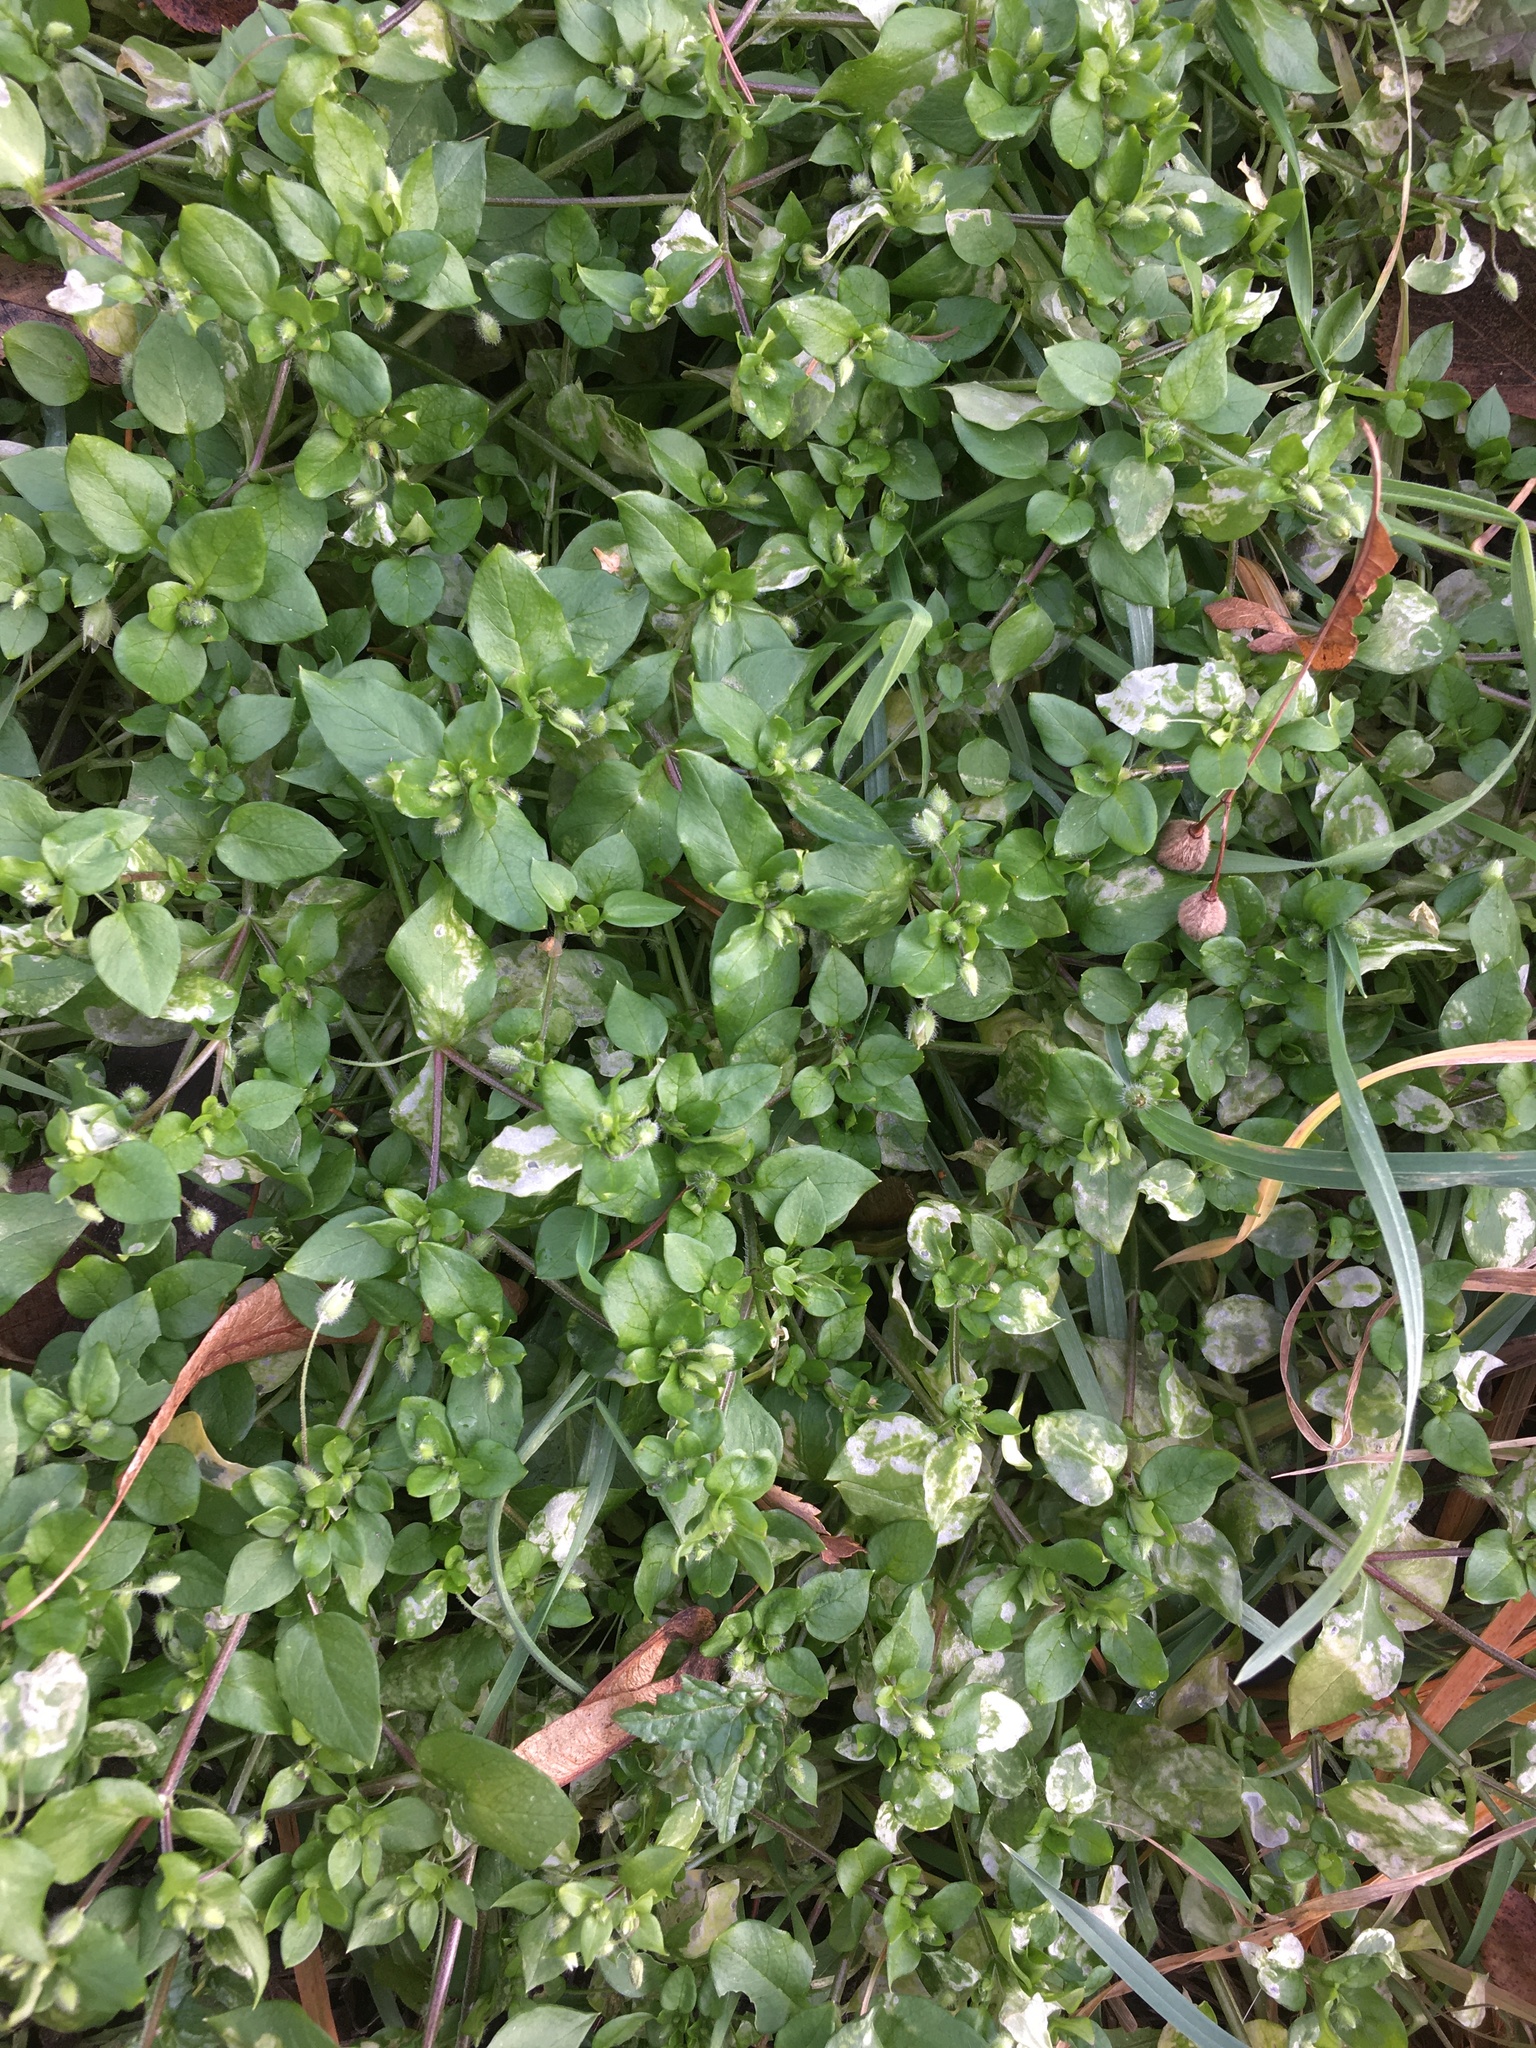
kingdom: Plantae
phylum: Tracheophyta
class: Magnoliopsida
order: Caryophyllales
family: Caryophyllaceae
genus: Stellaria
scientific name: Stellaria media
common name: Common chickweed
